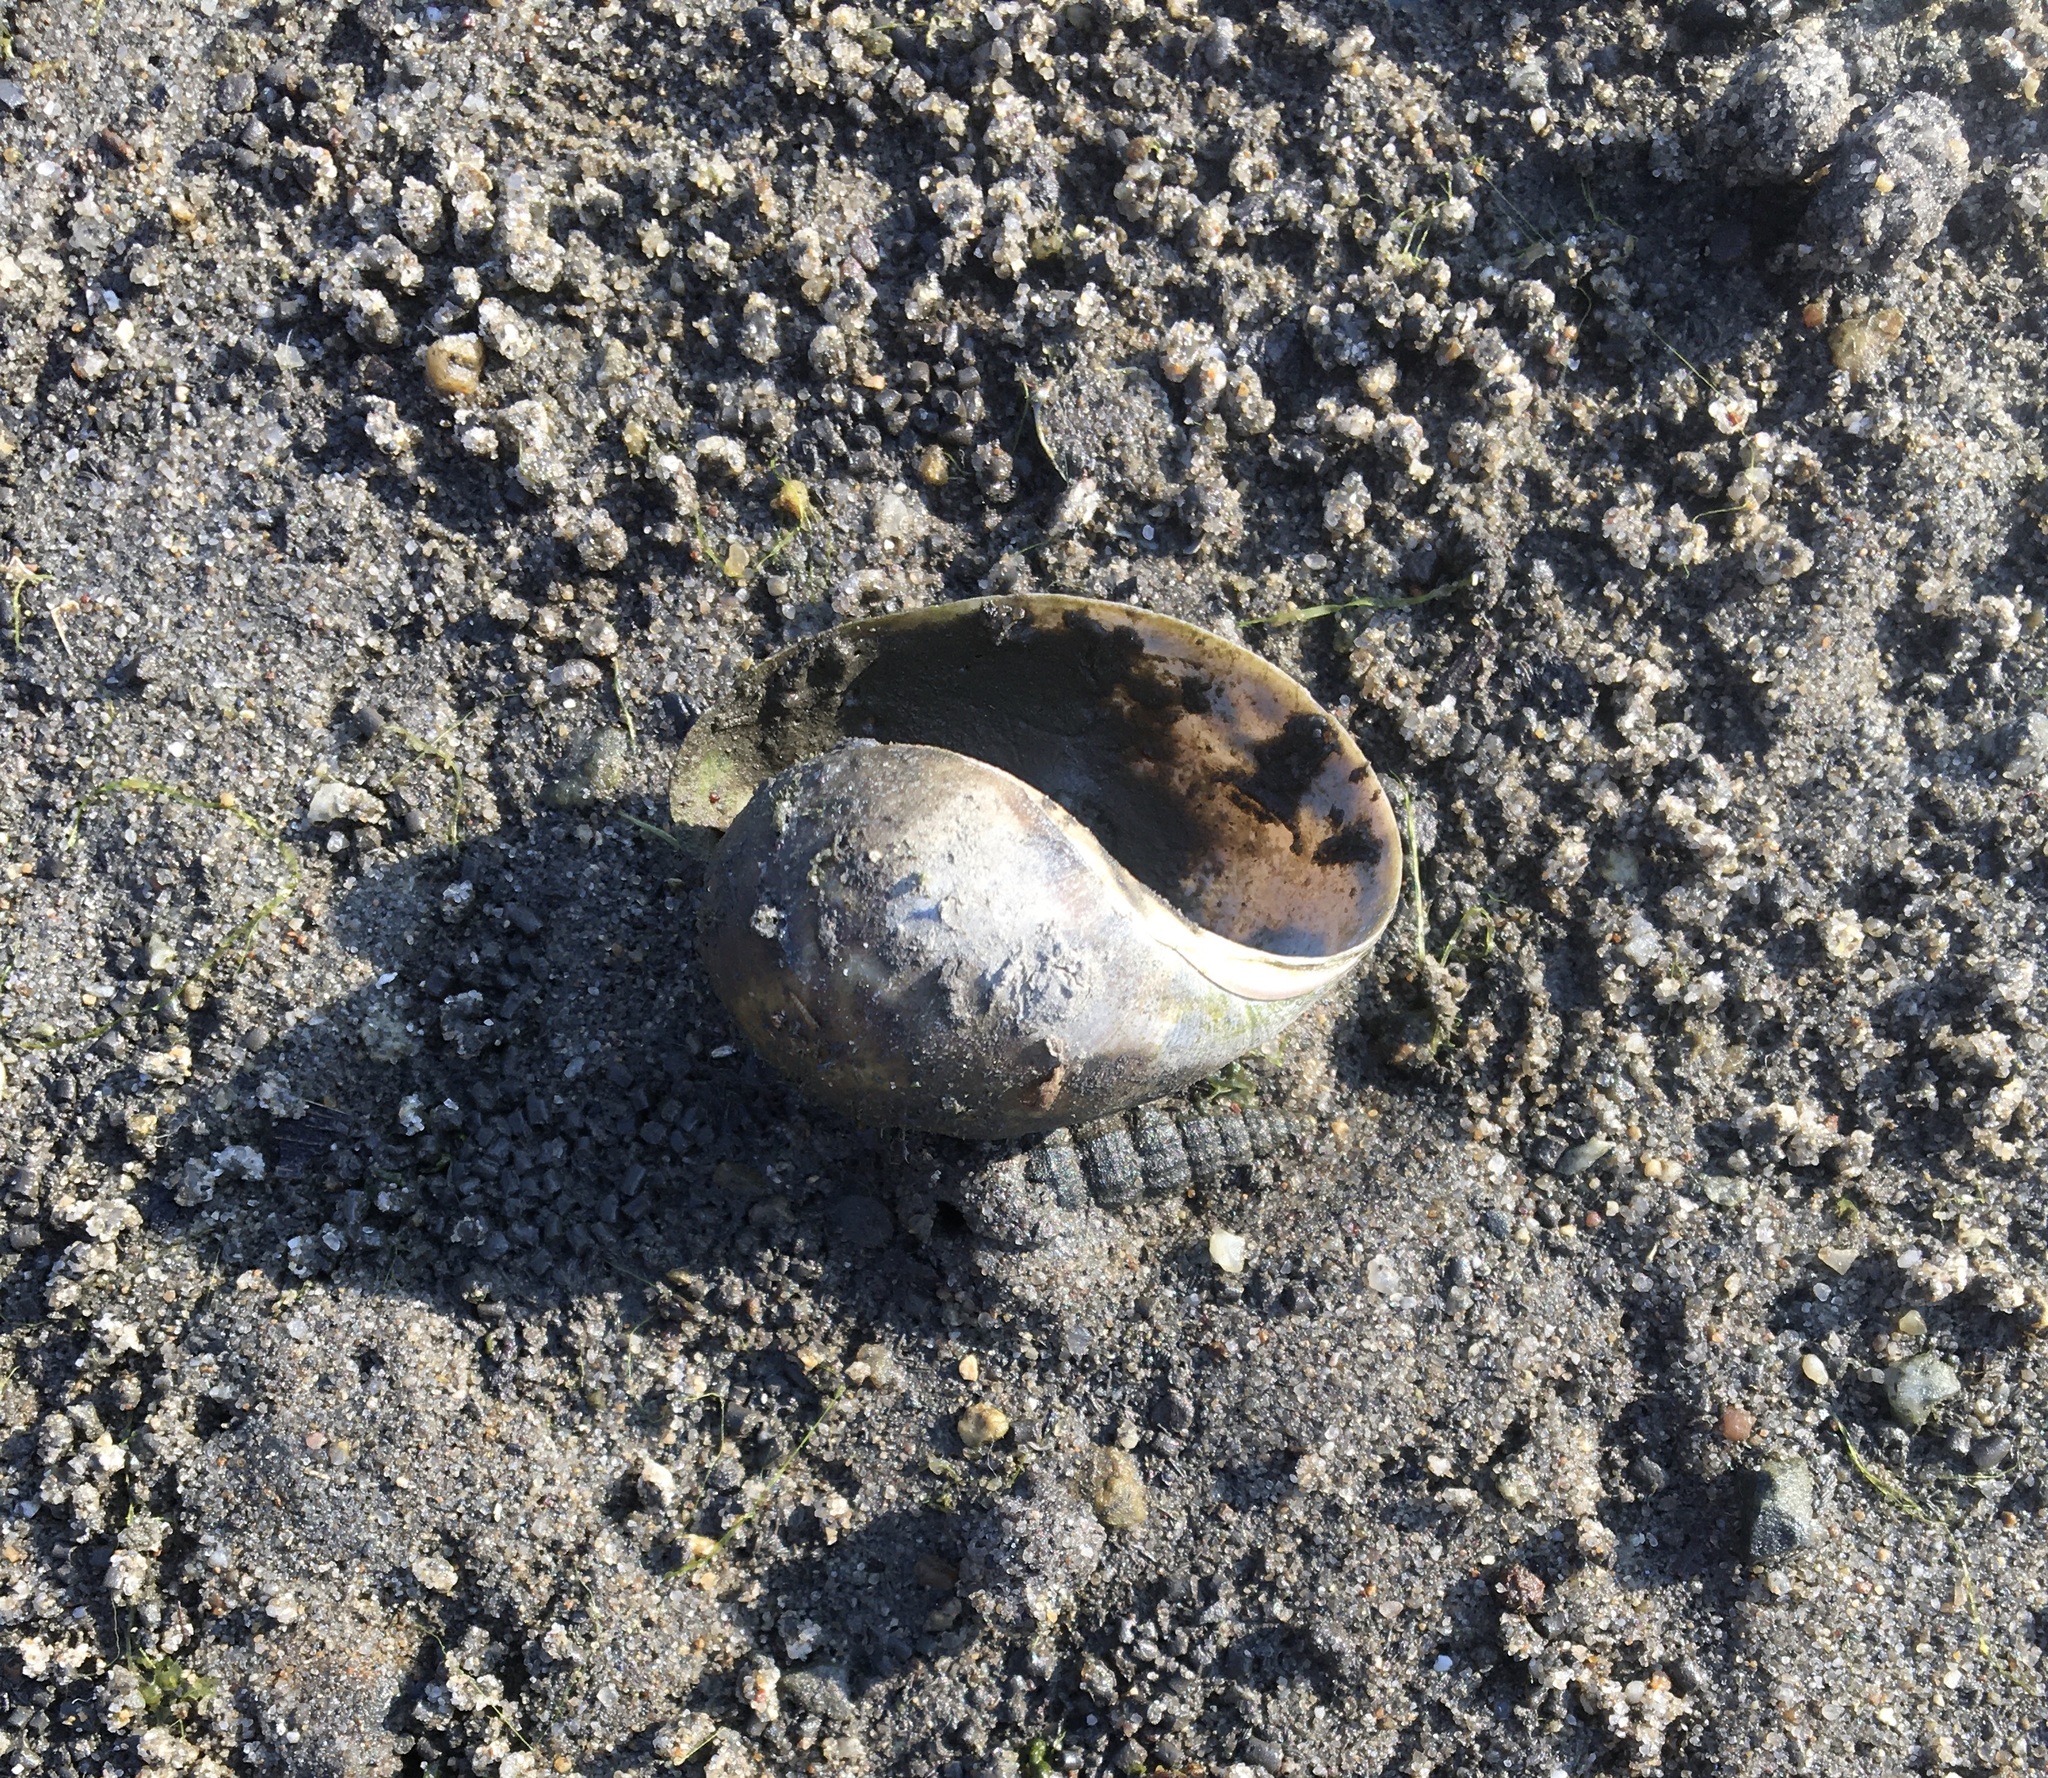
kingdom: Animalia
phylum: Mollusca
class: Gastropoda
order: Cephalaspidea
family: Bullidae
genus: Bulla
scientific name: Bulla gouldiana
